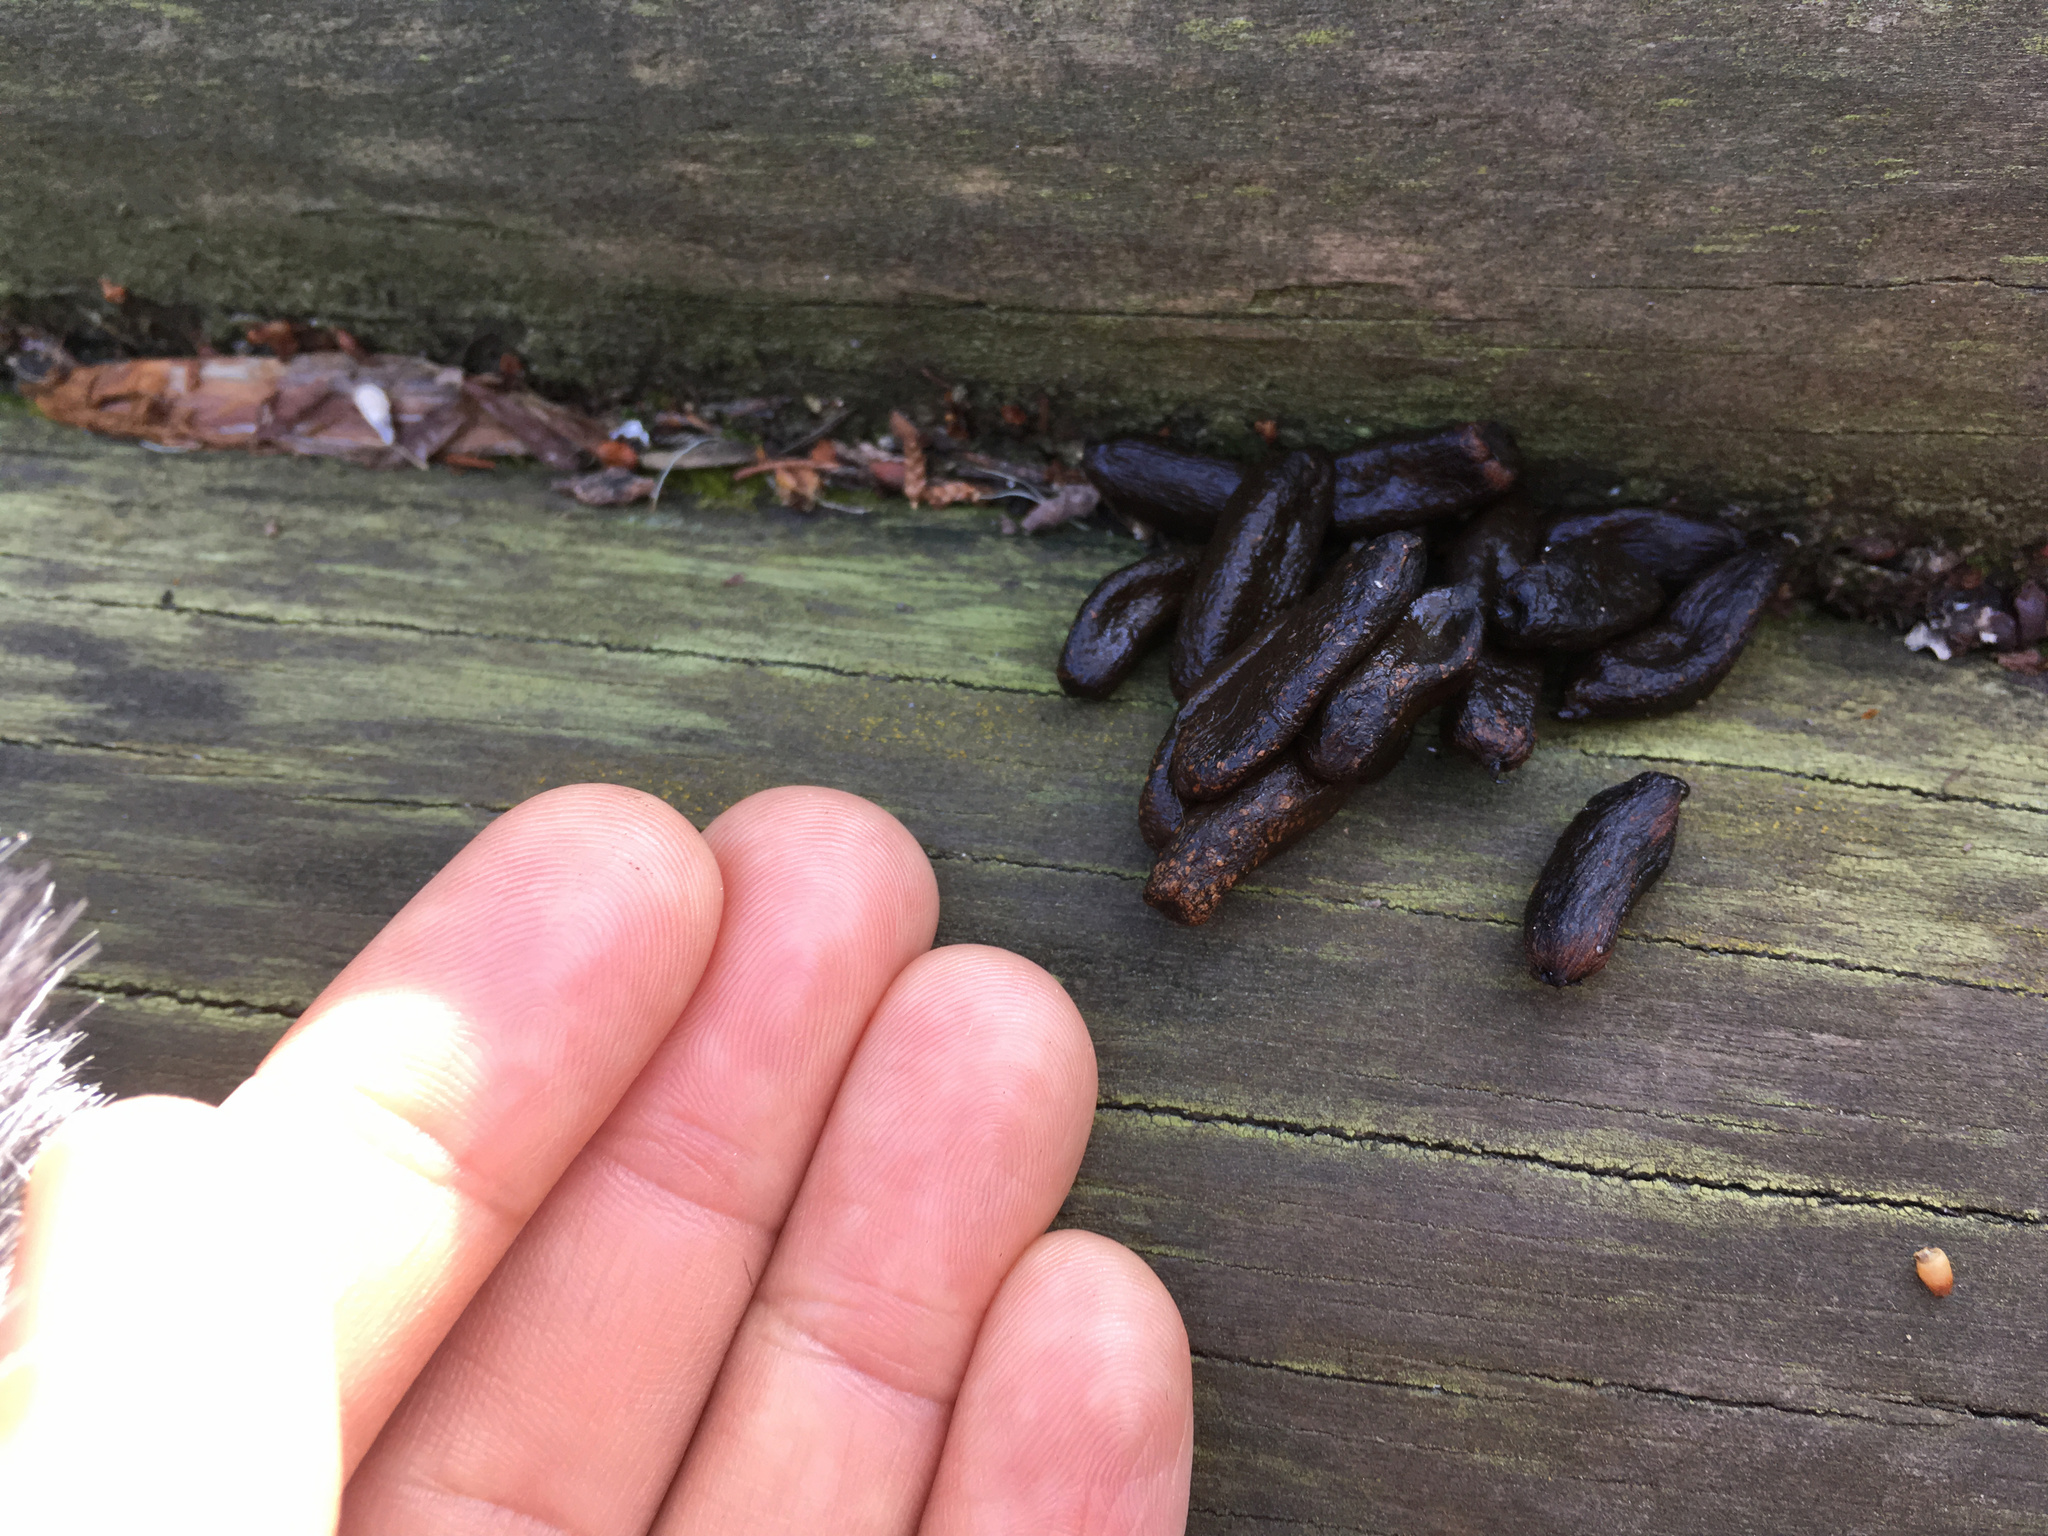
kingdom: Animalia
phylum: Chordata
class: Mammalia
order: Diprotodontia
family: Phalangeridae
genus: Trichosurus
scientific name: Trichosurus vulpecula
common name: Common brushtail
